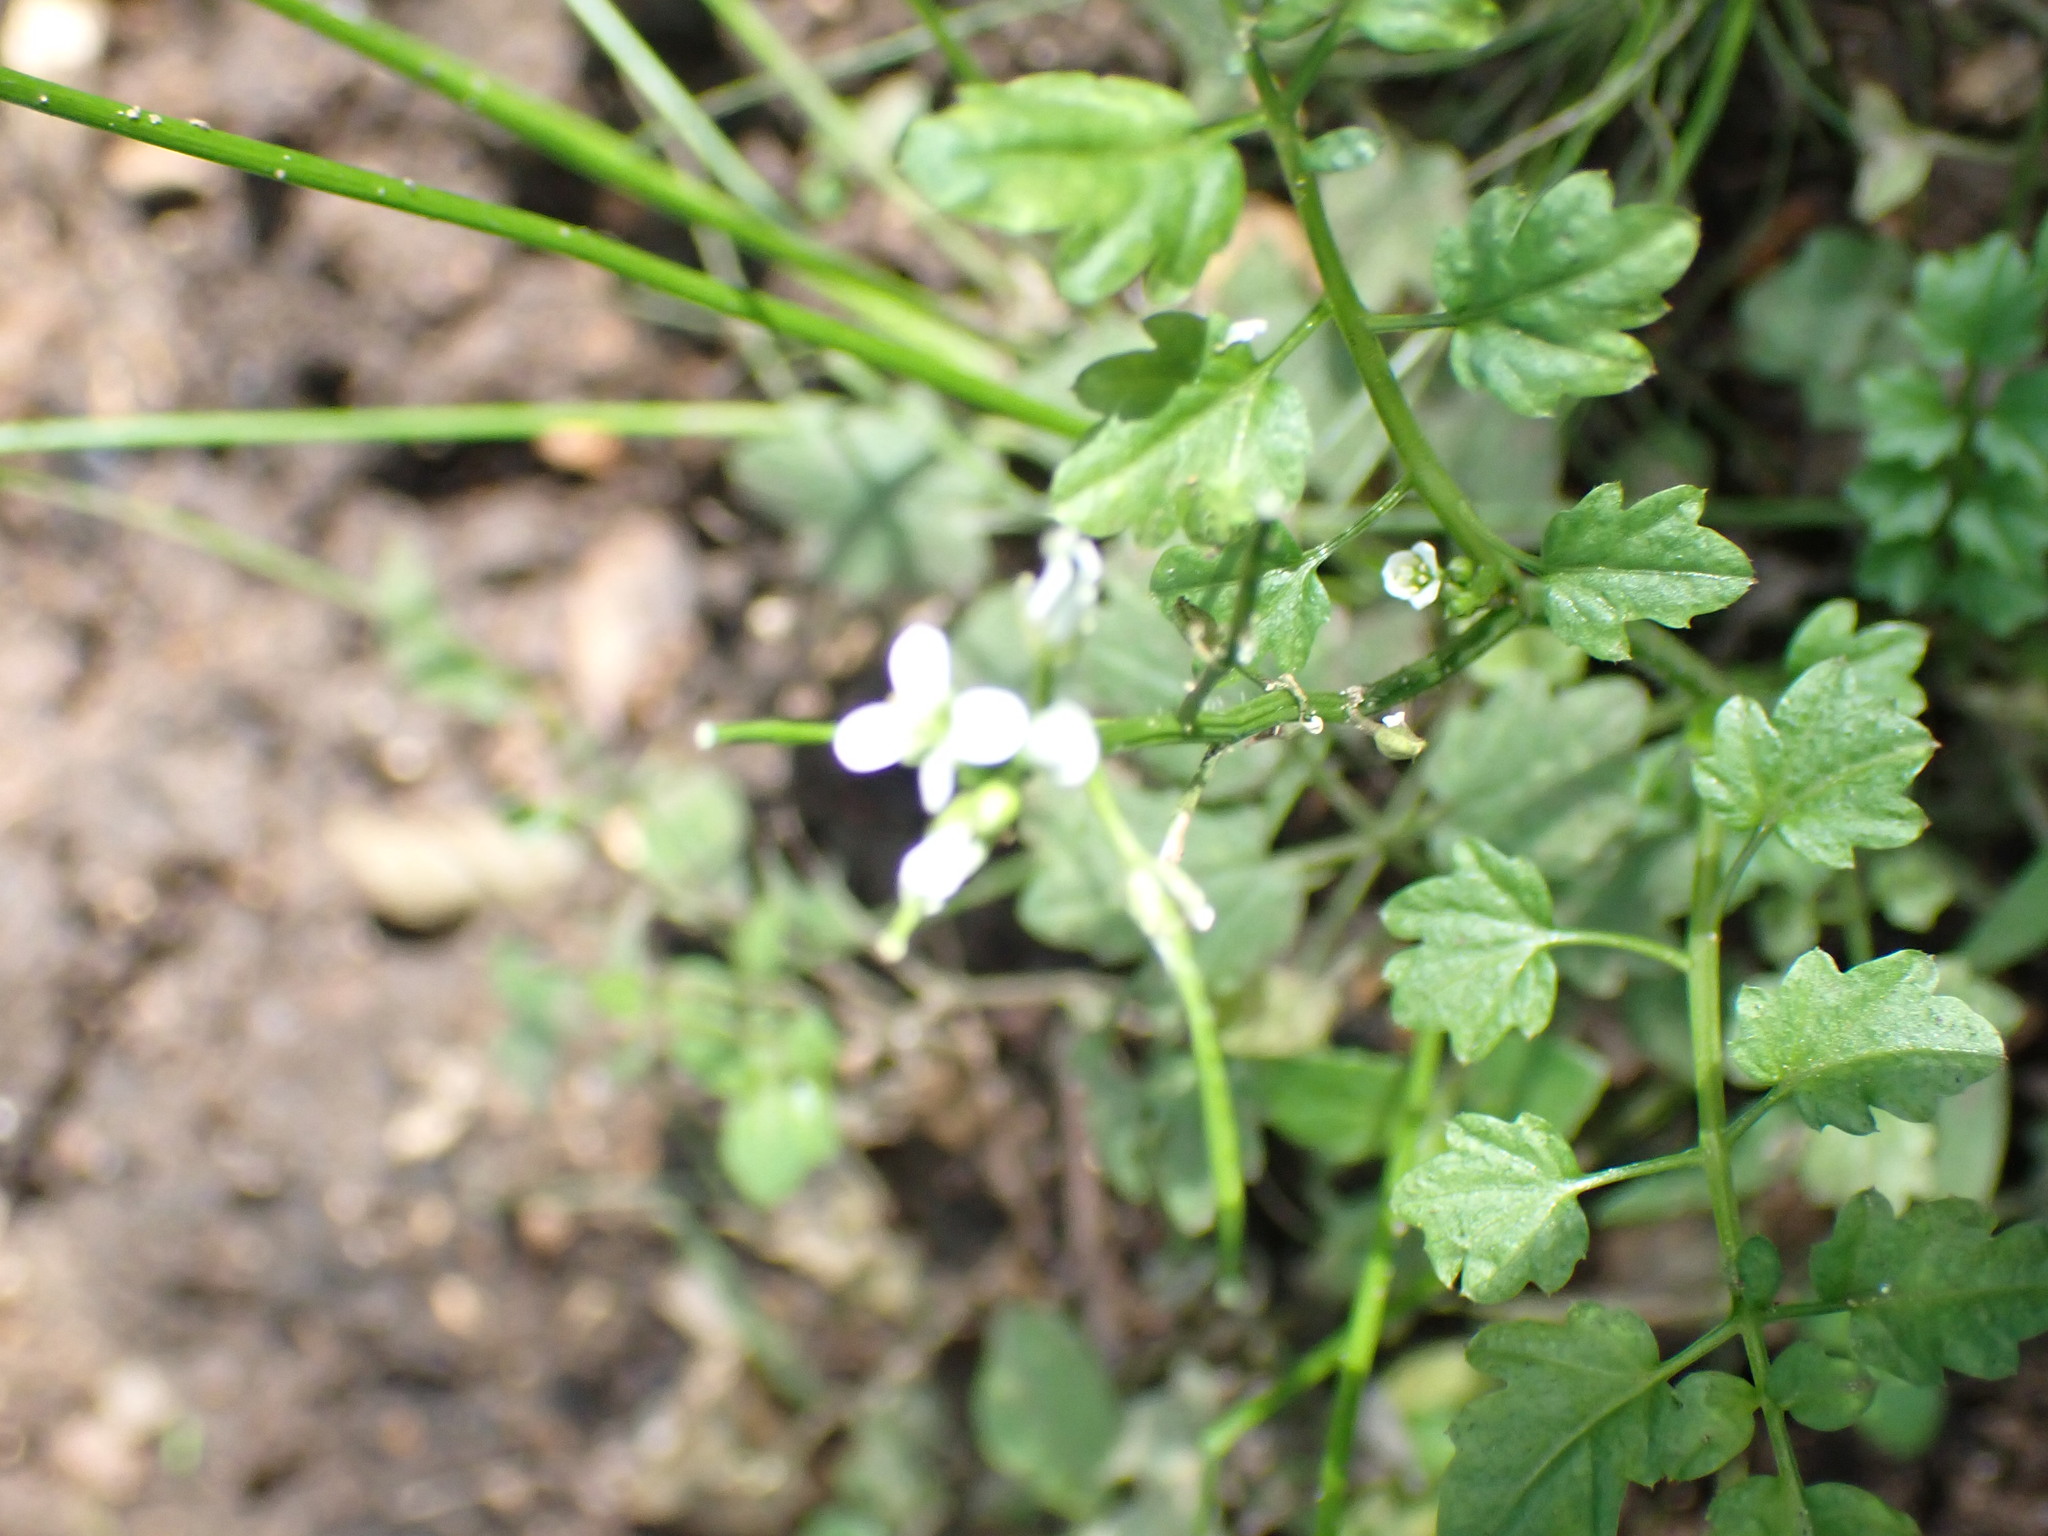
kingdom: Plantae
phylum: Tracheophyta
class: Magnoliopsida
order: Brassicales
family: Brassicaceae
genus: Cardamine
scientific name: Cardamine flexuosa
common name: Woodland bittercress
